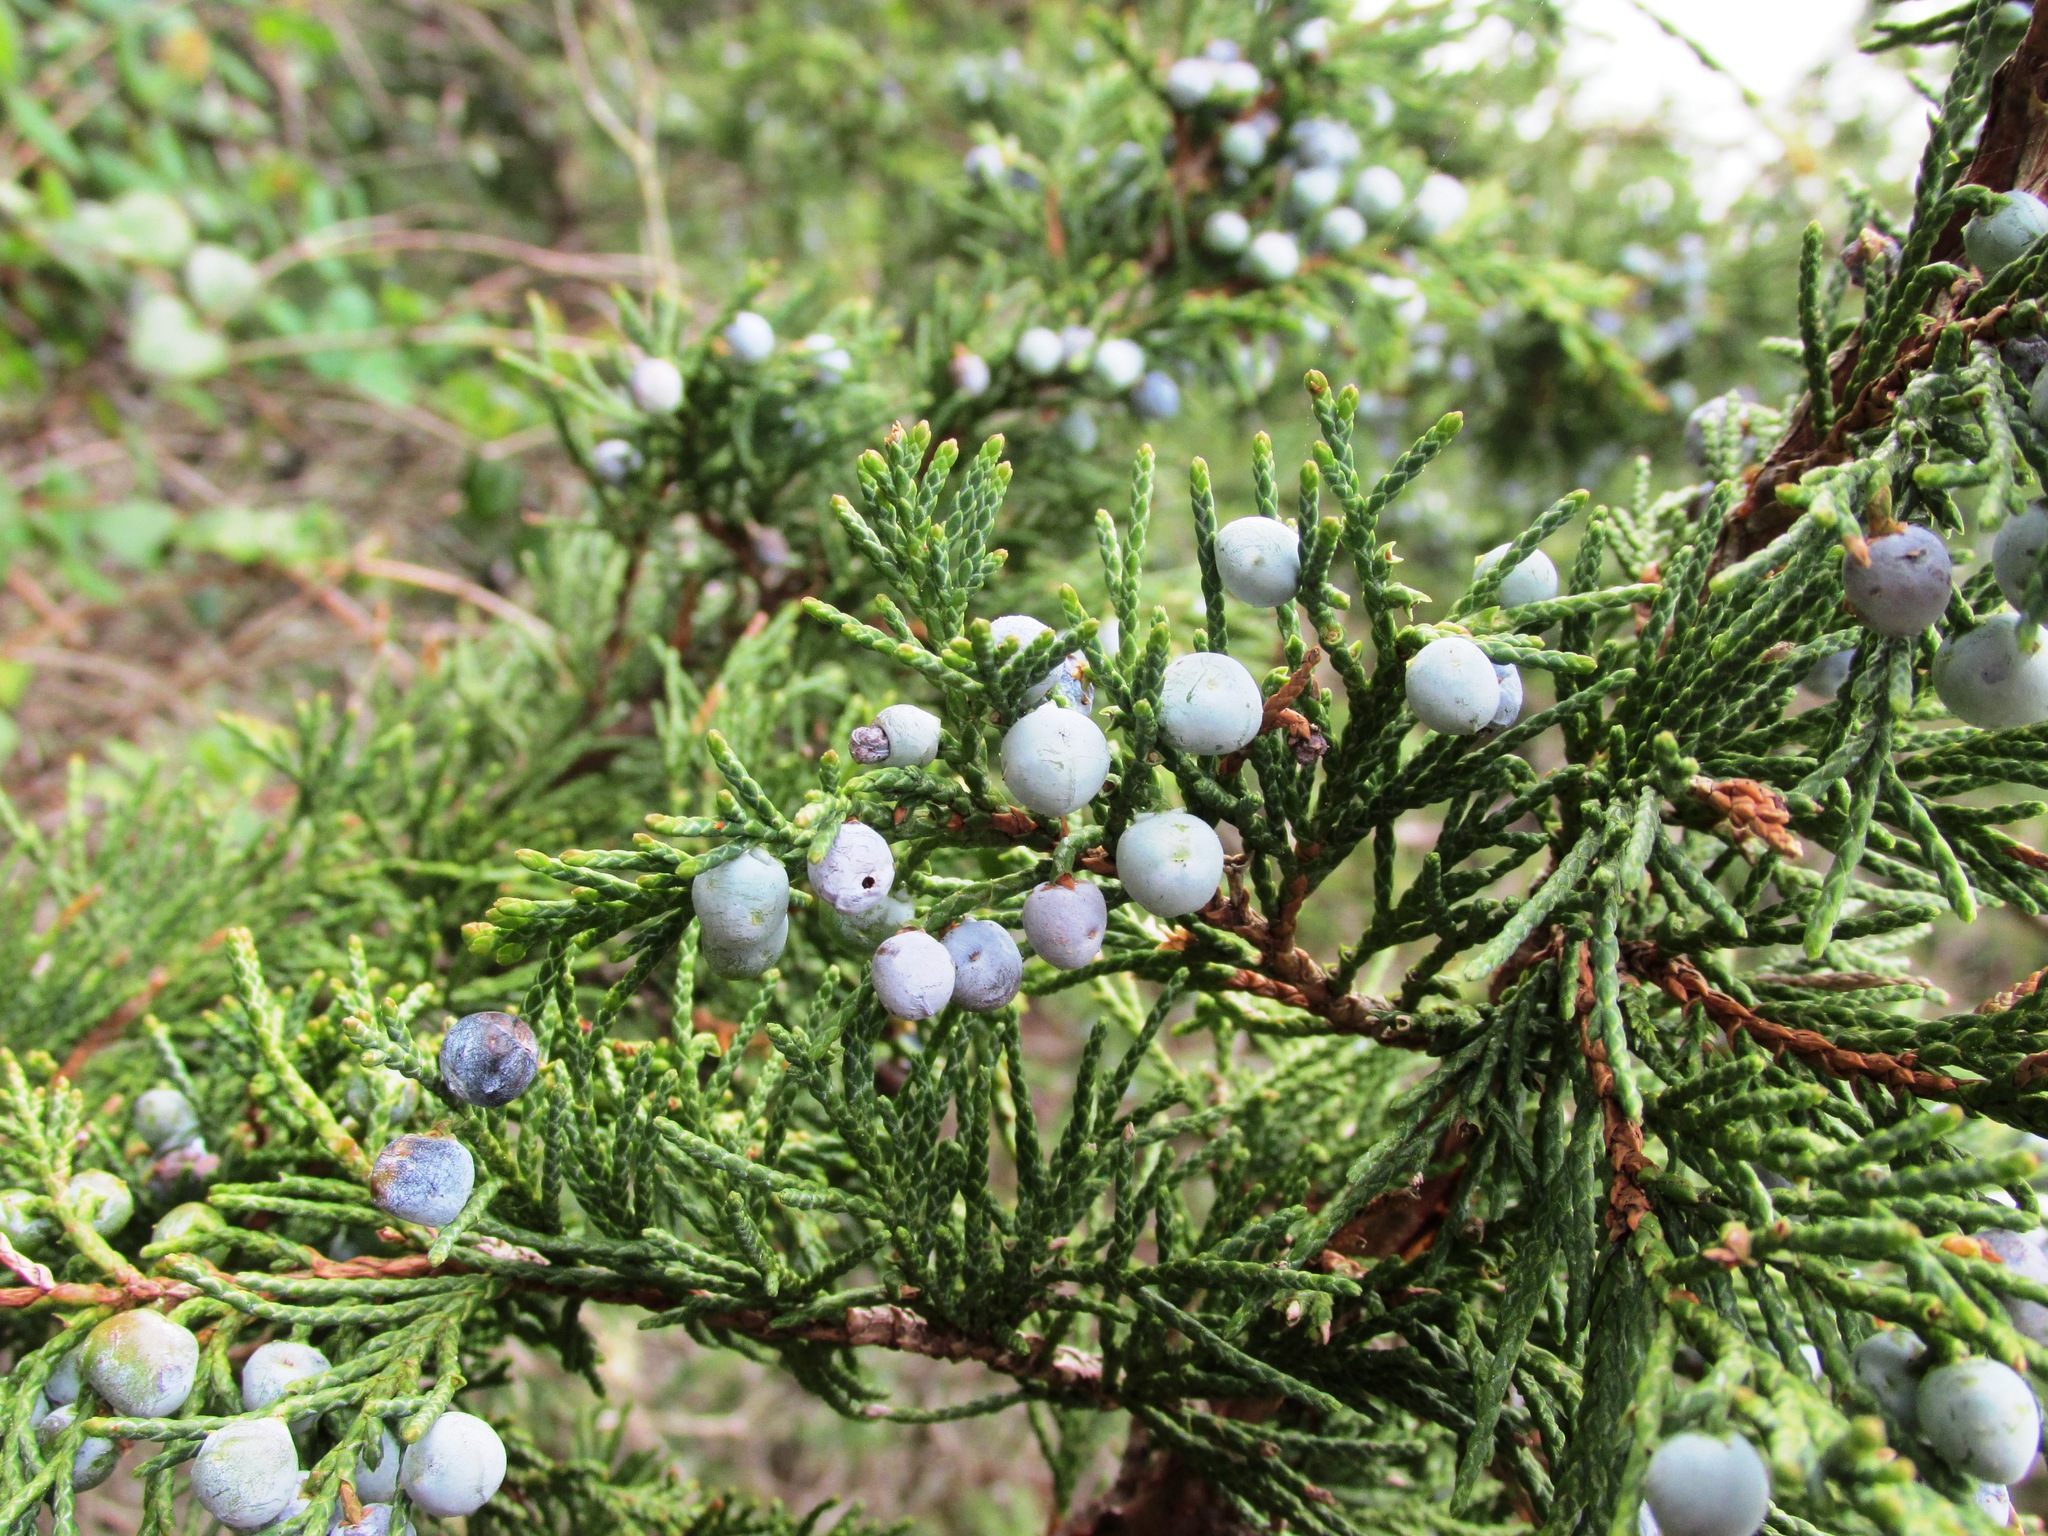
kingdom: Plantae
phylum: Tracheophyta
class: Pinopsida
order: Pinales
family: Cupressaceae
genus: Juniperus
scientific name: Juniperus scopulorum
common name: Rocky mountain juniper
